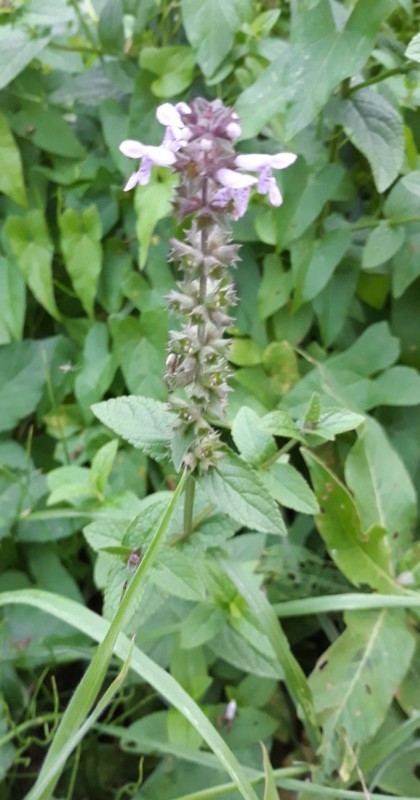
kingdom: Plantae
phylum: Tracheophyta
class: Magnoliopsida
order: Lamiales
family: Lamiaceae
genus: Stachys
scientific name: Stachys palustris
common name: Marsh woundwort
